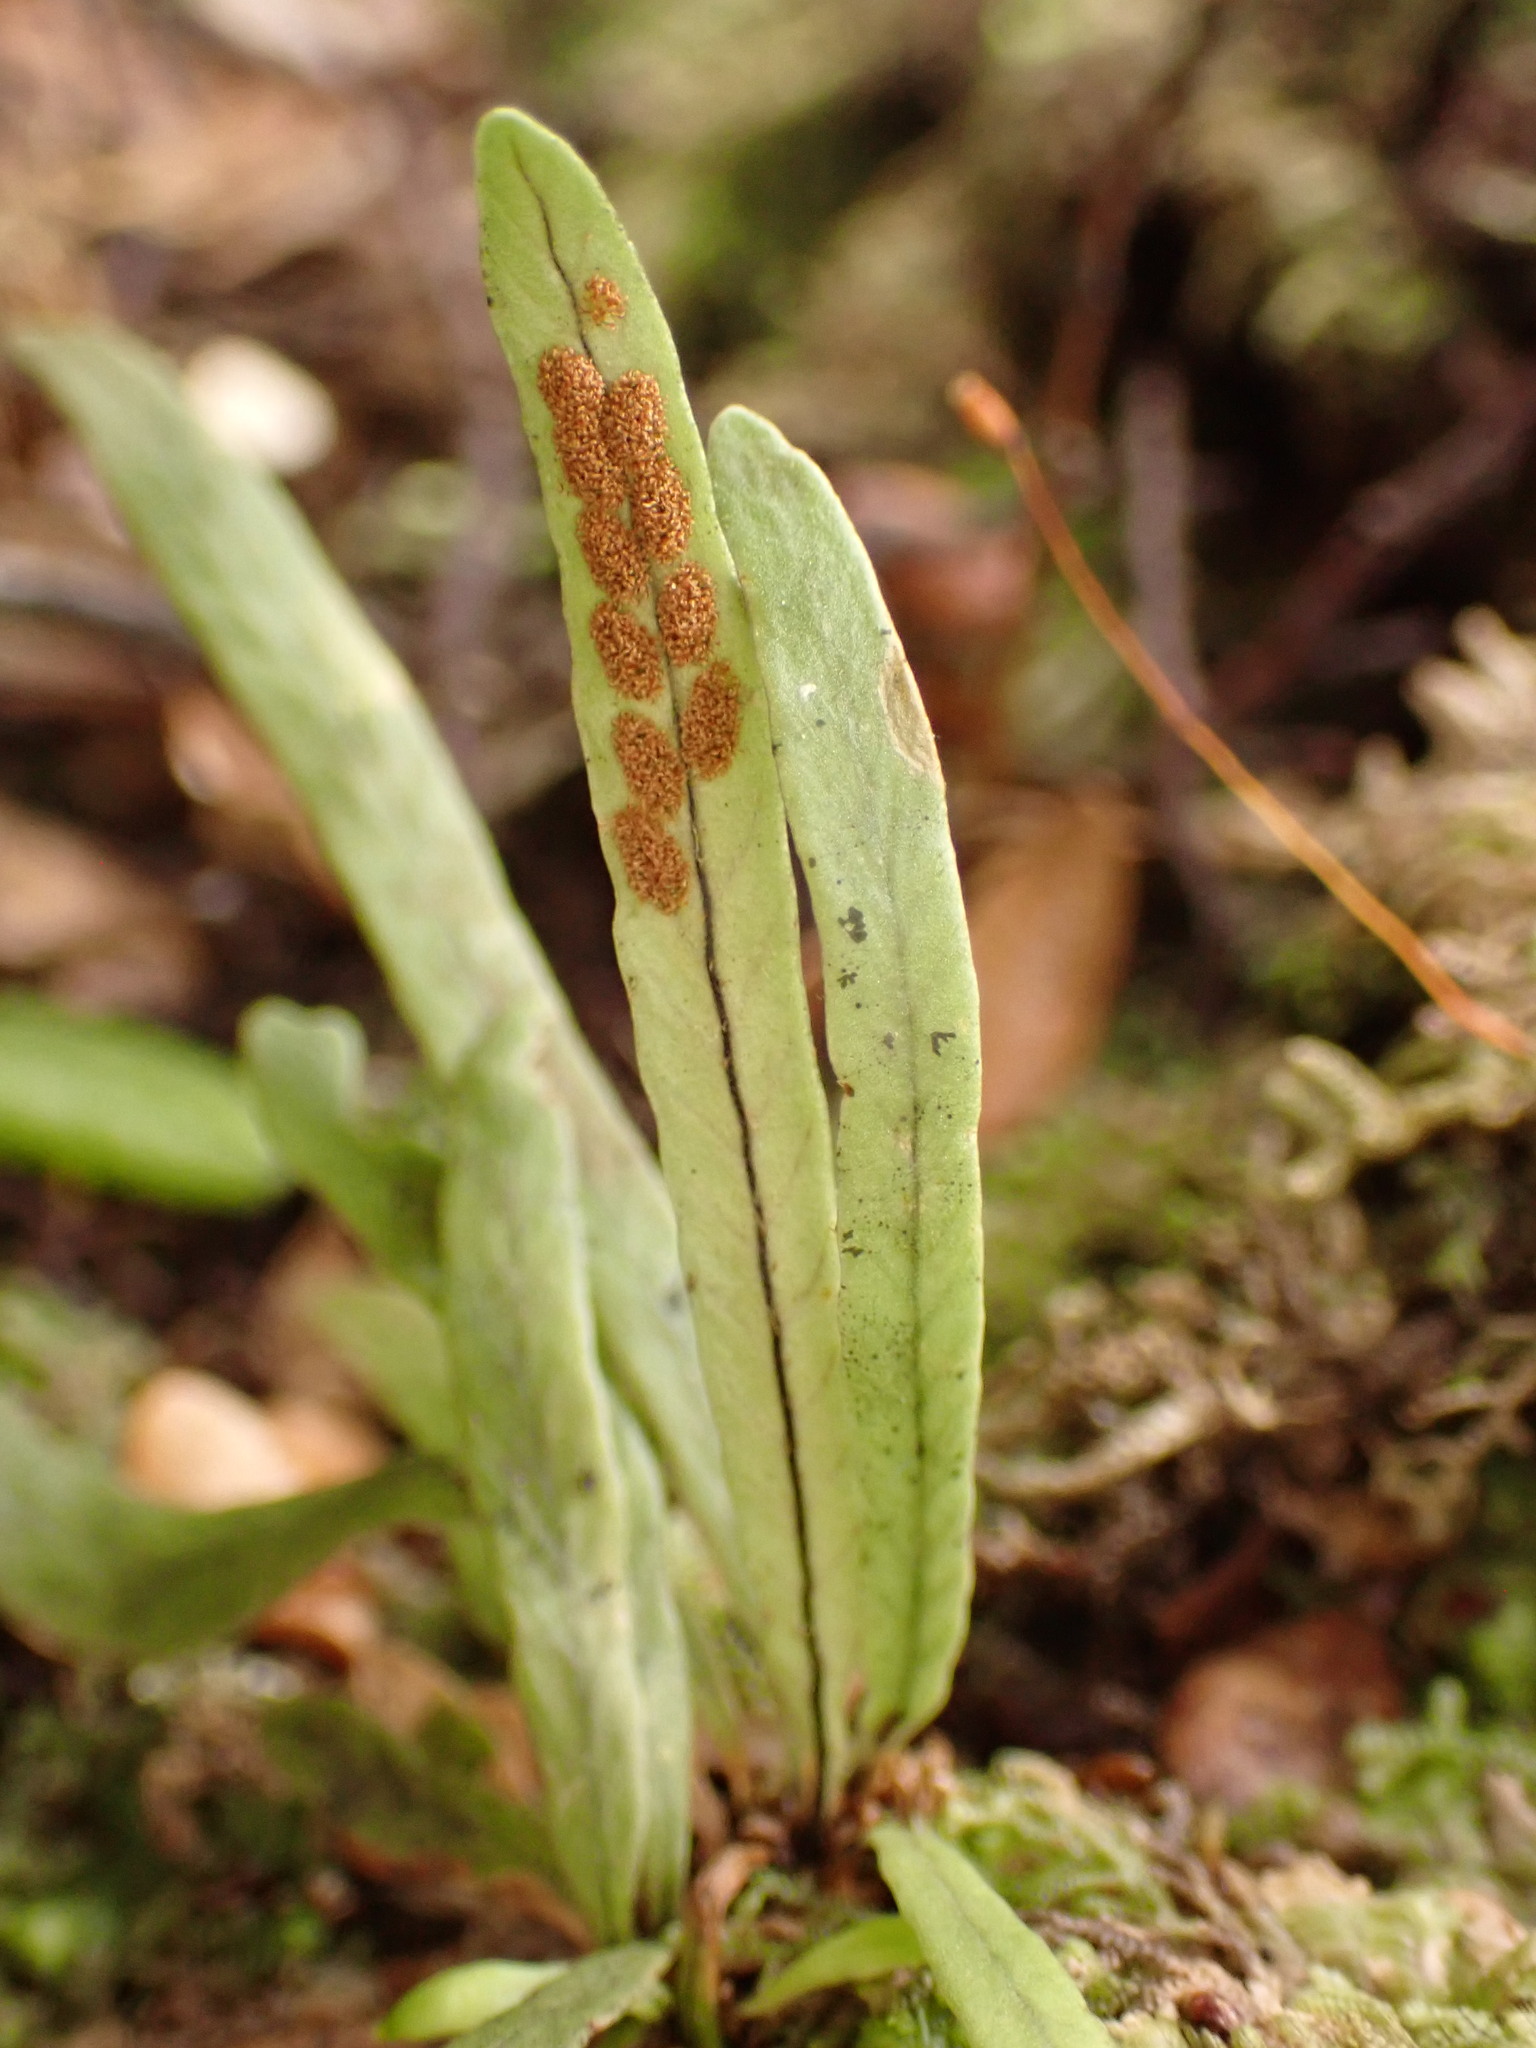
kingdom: Plantae
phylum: Tracheophyta
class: Polypodiopsida
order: Polypodiales
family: Polypodiaceae
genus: Notogrammitis
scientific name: Notogrammitis ciliata
